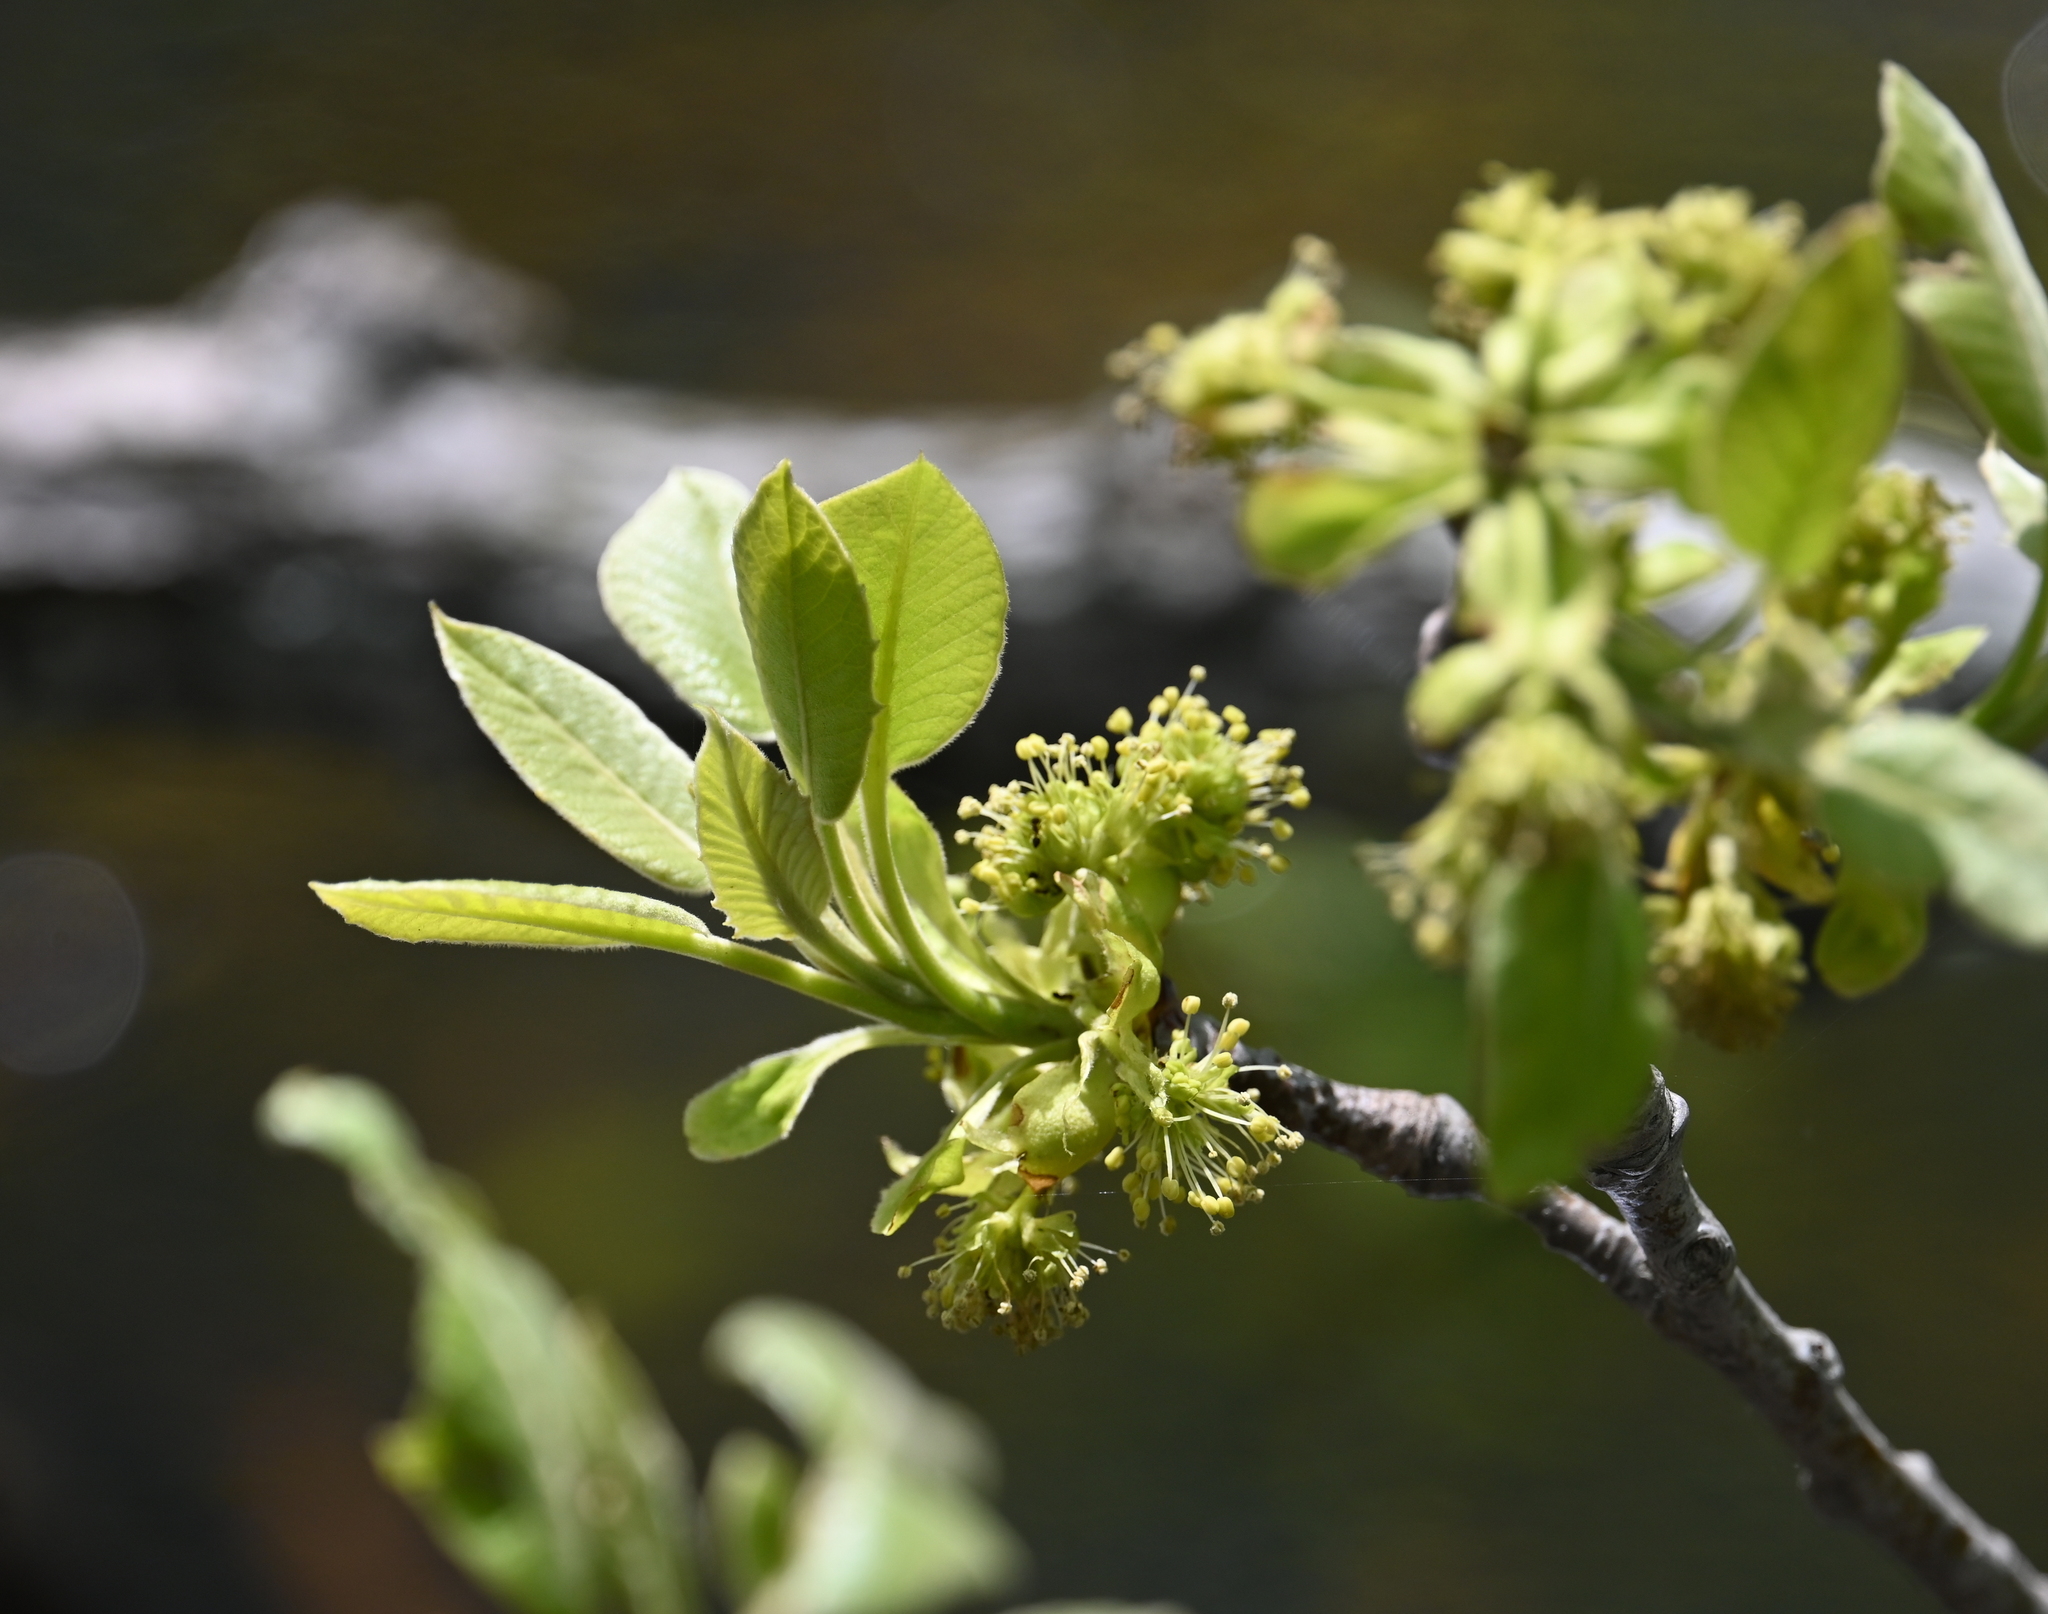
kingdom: Plantae
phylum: Tracheophyta
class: Magnoliopsida
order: Cornales
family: Nyssaceae
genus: Nyssa
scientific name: Nyssa aquatica
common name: Swamp tupelo
